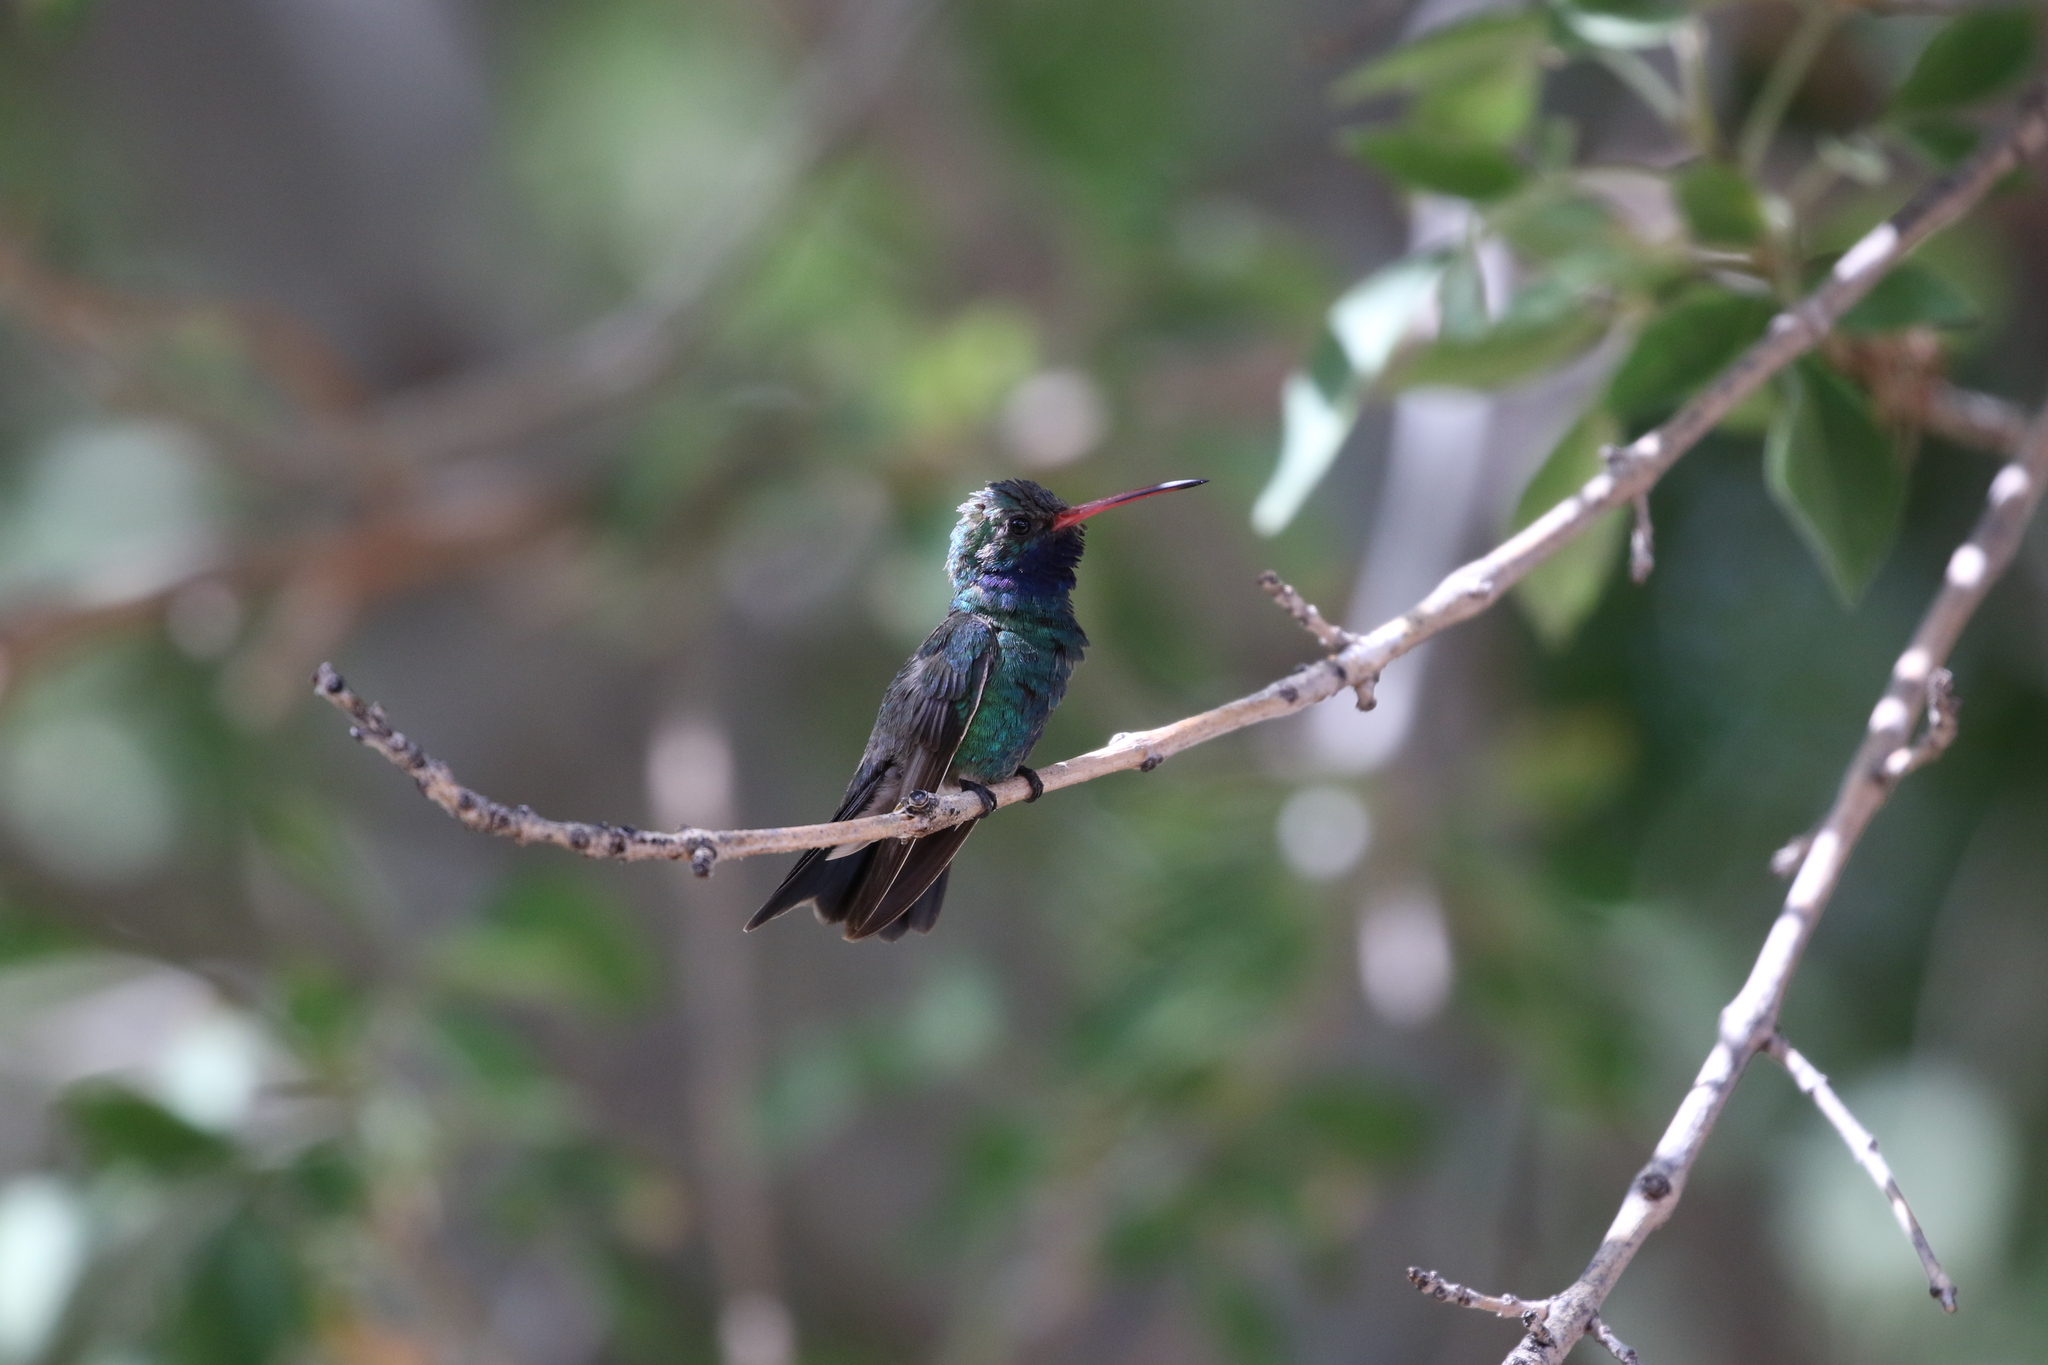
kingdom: Animalia
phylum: Chordata
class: Aves
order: Apodiformes
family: Trochilidae
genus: Cynanthus
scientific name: Cynanthus latirostris
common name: Broad-billed hummingbird
